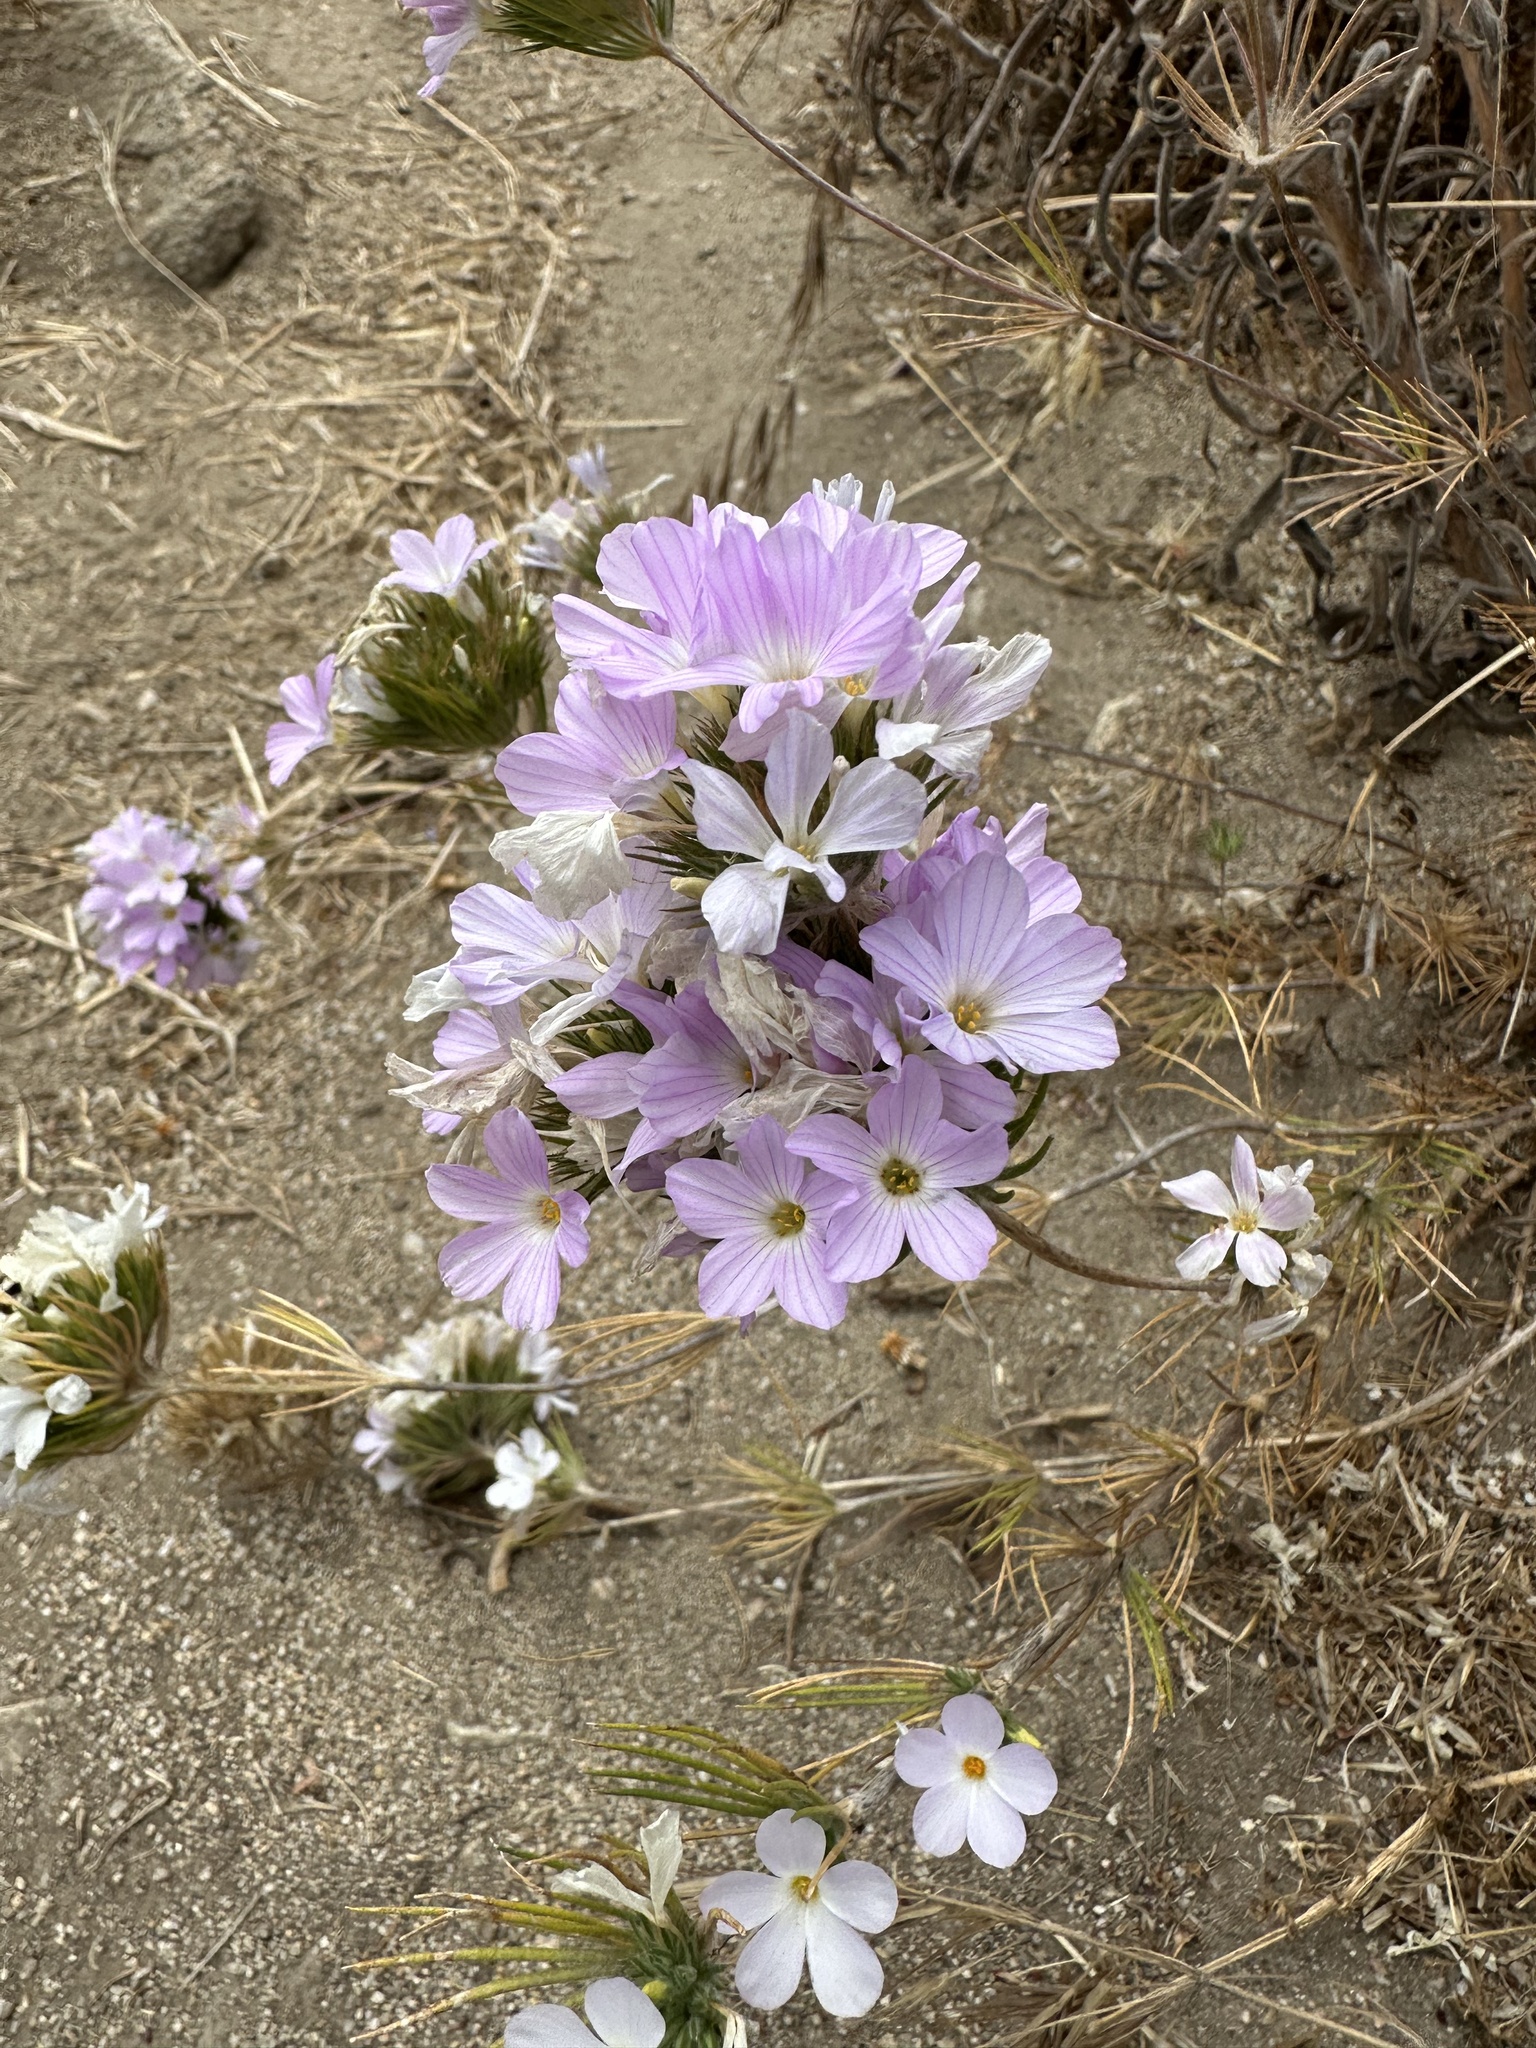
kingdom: Plantae
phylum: Tracheophyta
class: Magnoliopsida
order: Ericales
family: Polemoniaceae
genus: Leptosiphon
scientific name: Leptosiphon grandiflorus
